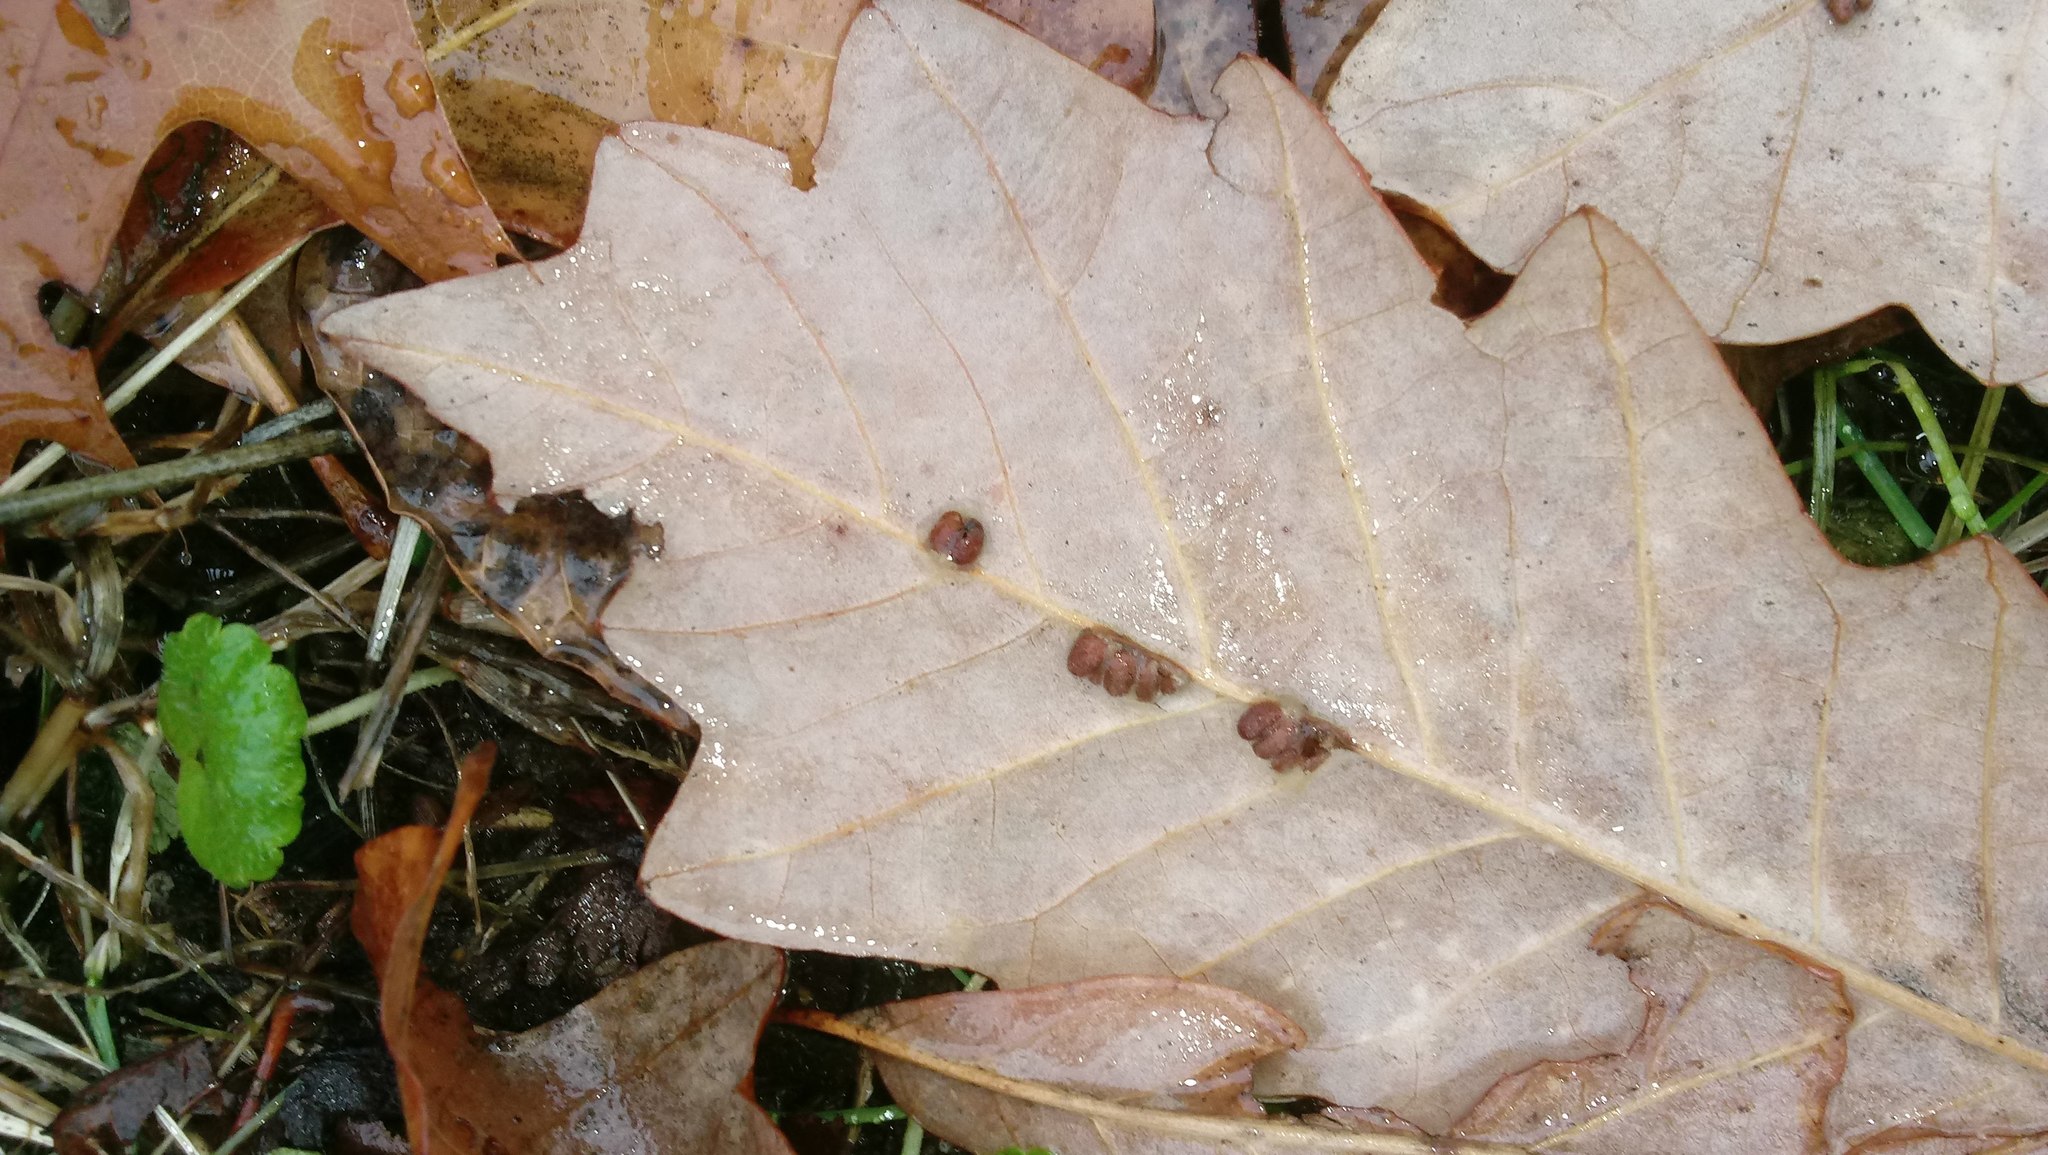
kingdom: Animalia
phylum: Arthropoda
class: Insecta
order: Hymenoptera
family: Cynipidae
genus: Andricus
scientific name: Andricus Druon ignotum
